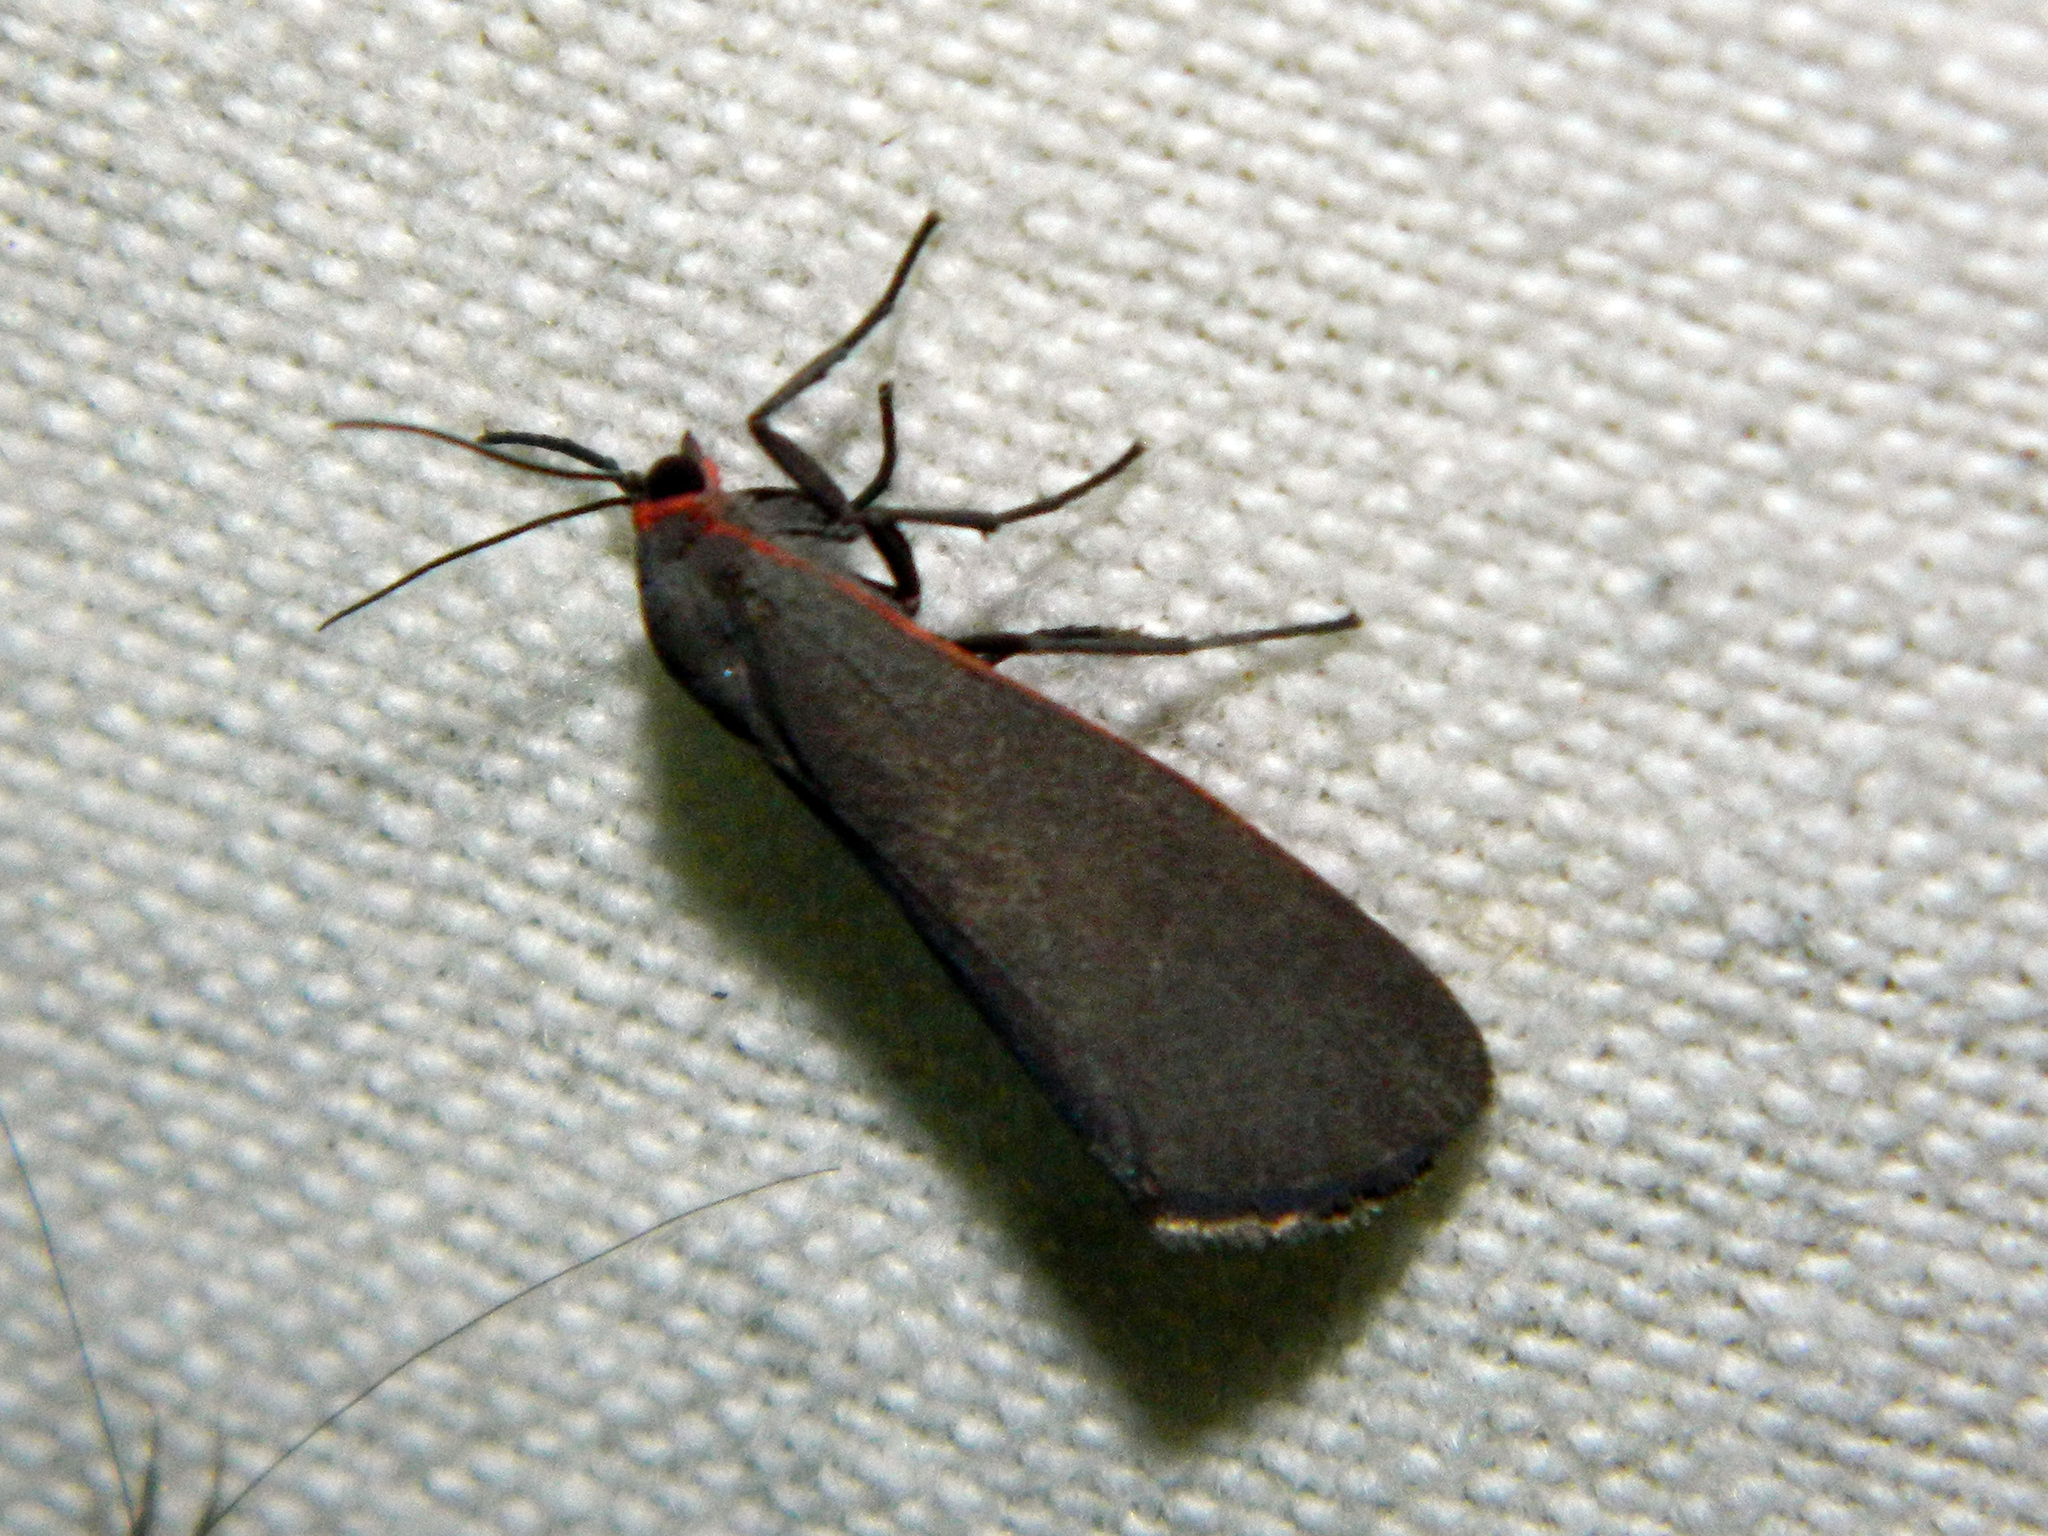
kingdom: Animalia
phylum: Arthropoda
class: Insecta
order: Lepidoptera
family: Erebidae
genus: Virbia
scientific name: Virbia laeta
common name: Joyful holomelina moth
